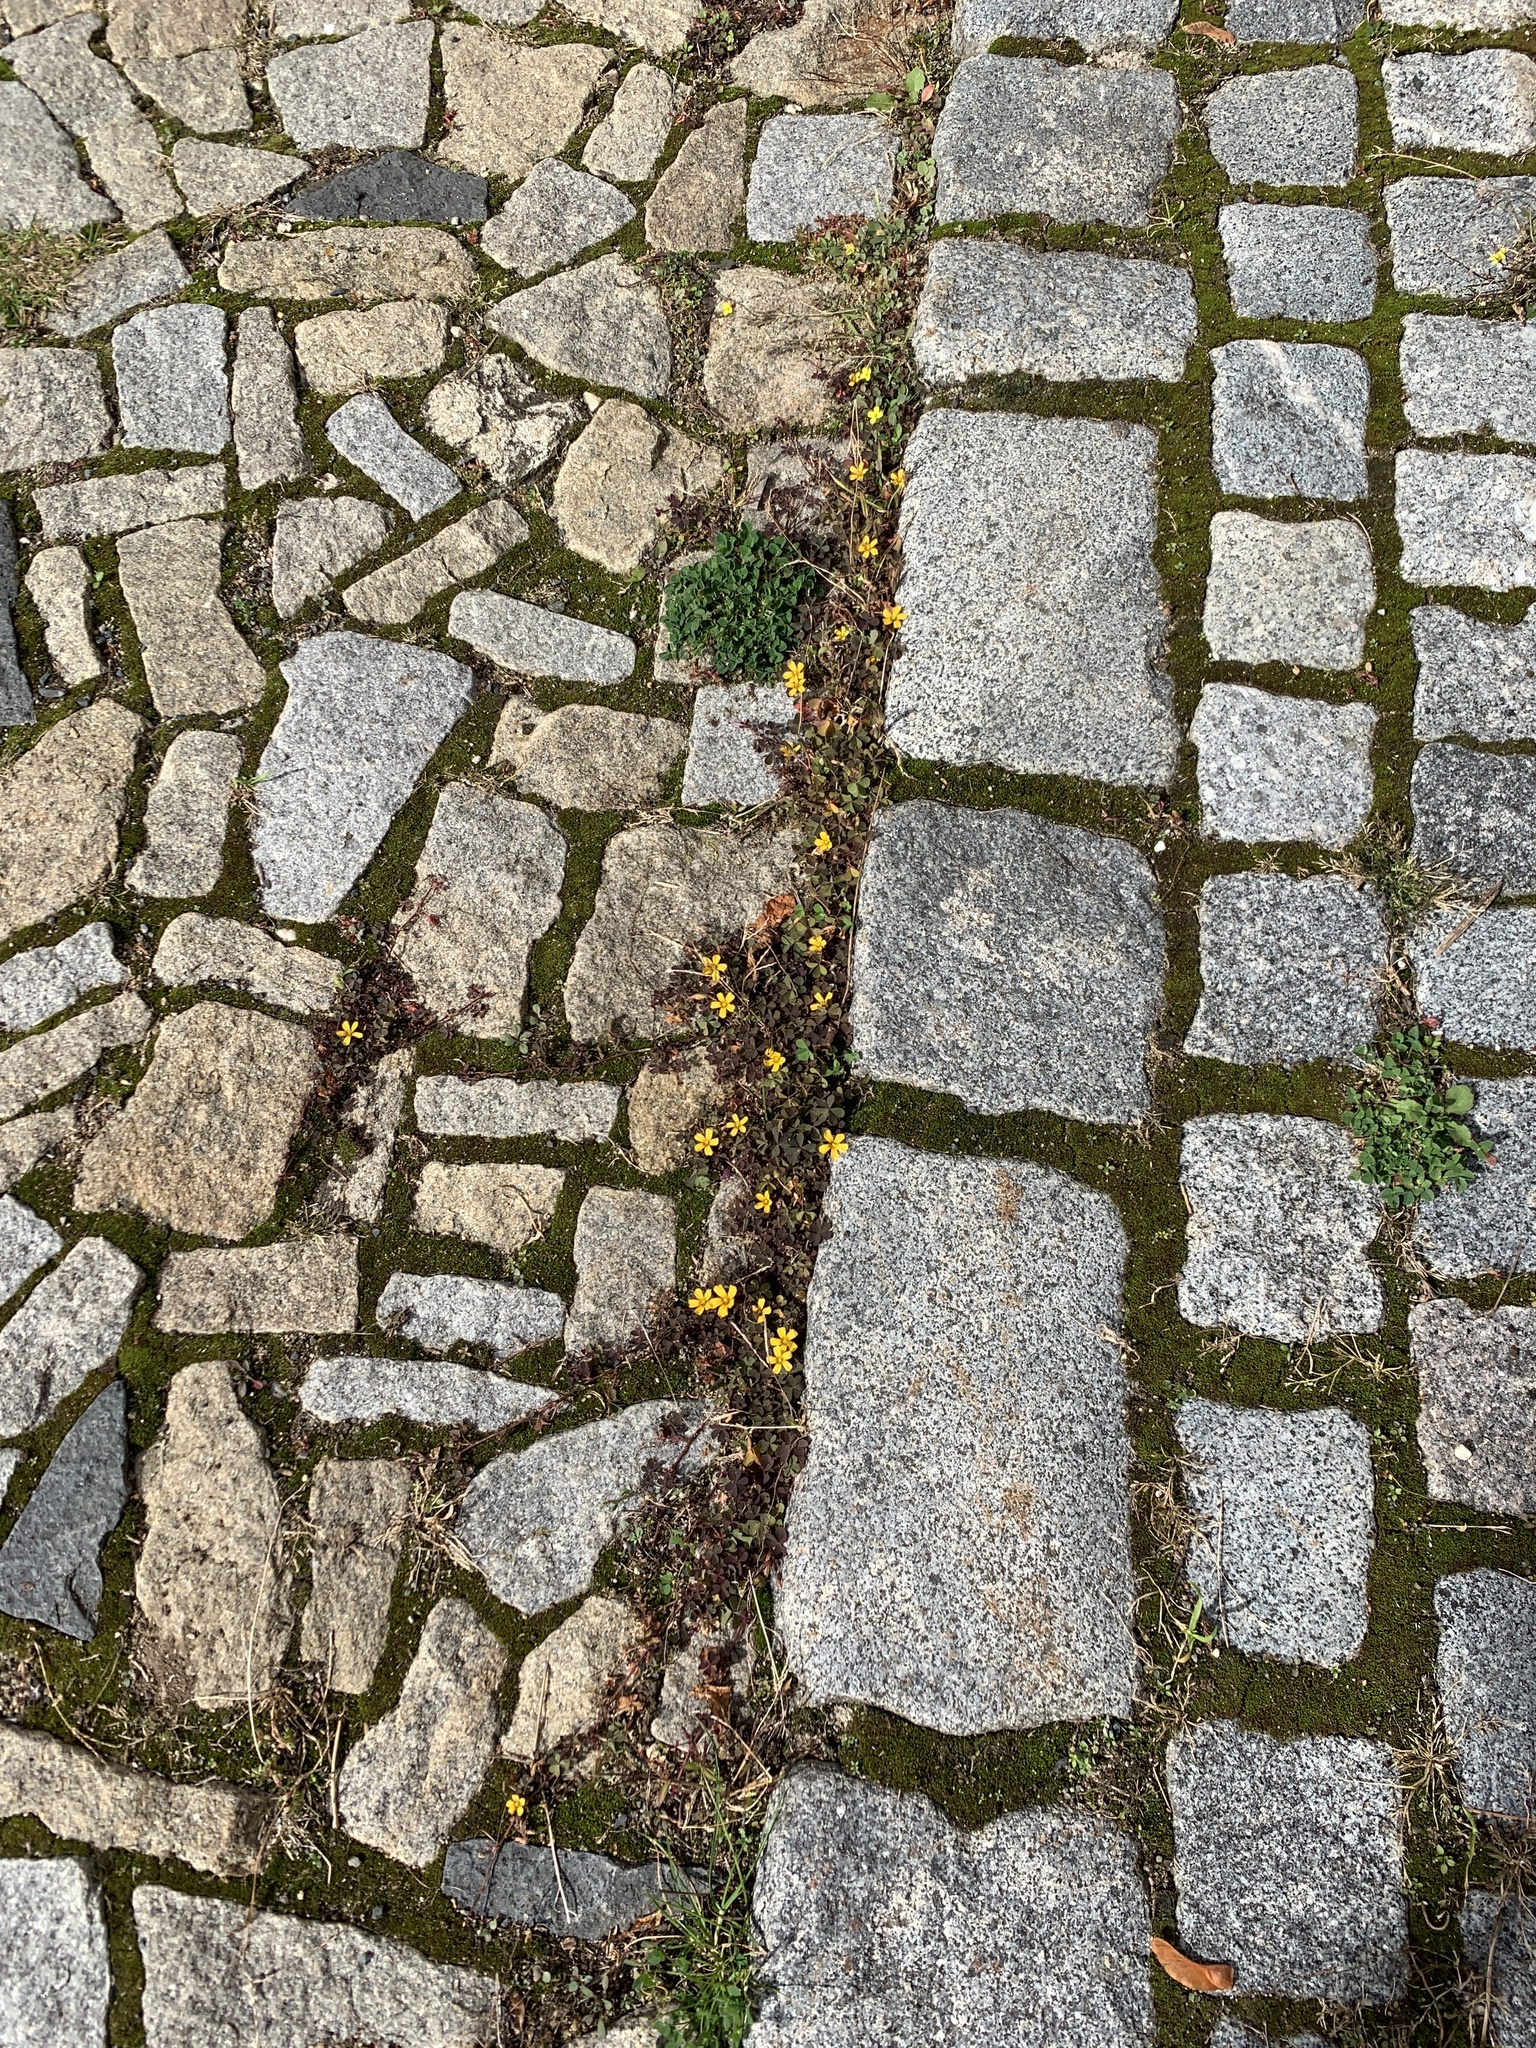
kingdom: Plantae
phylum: Tracheophyta
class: Magnoliopsida
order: Oxalidales
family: Oxalidaceae
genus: Oxalis
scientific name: Oxalis corniculata
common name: Procumbent yellow-sorrel
